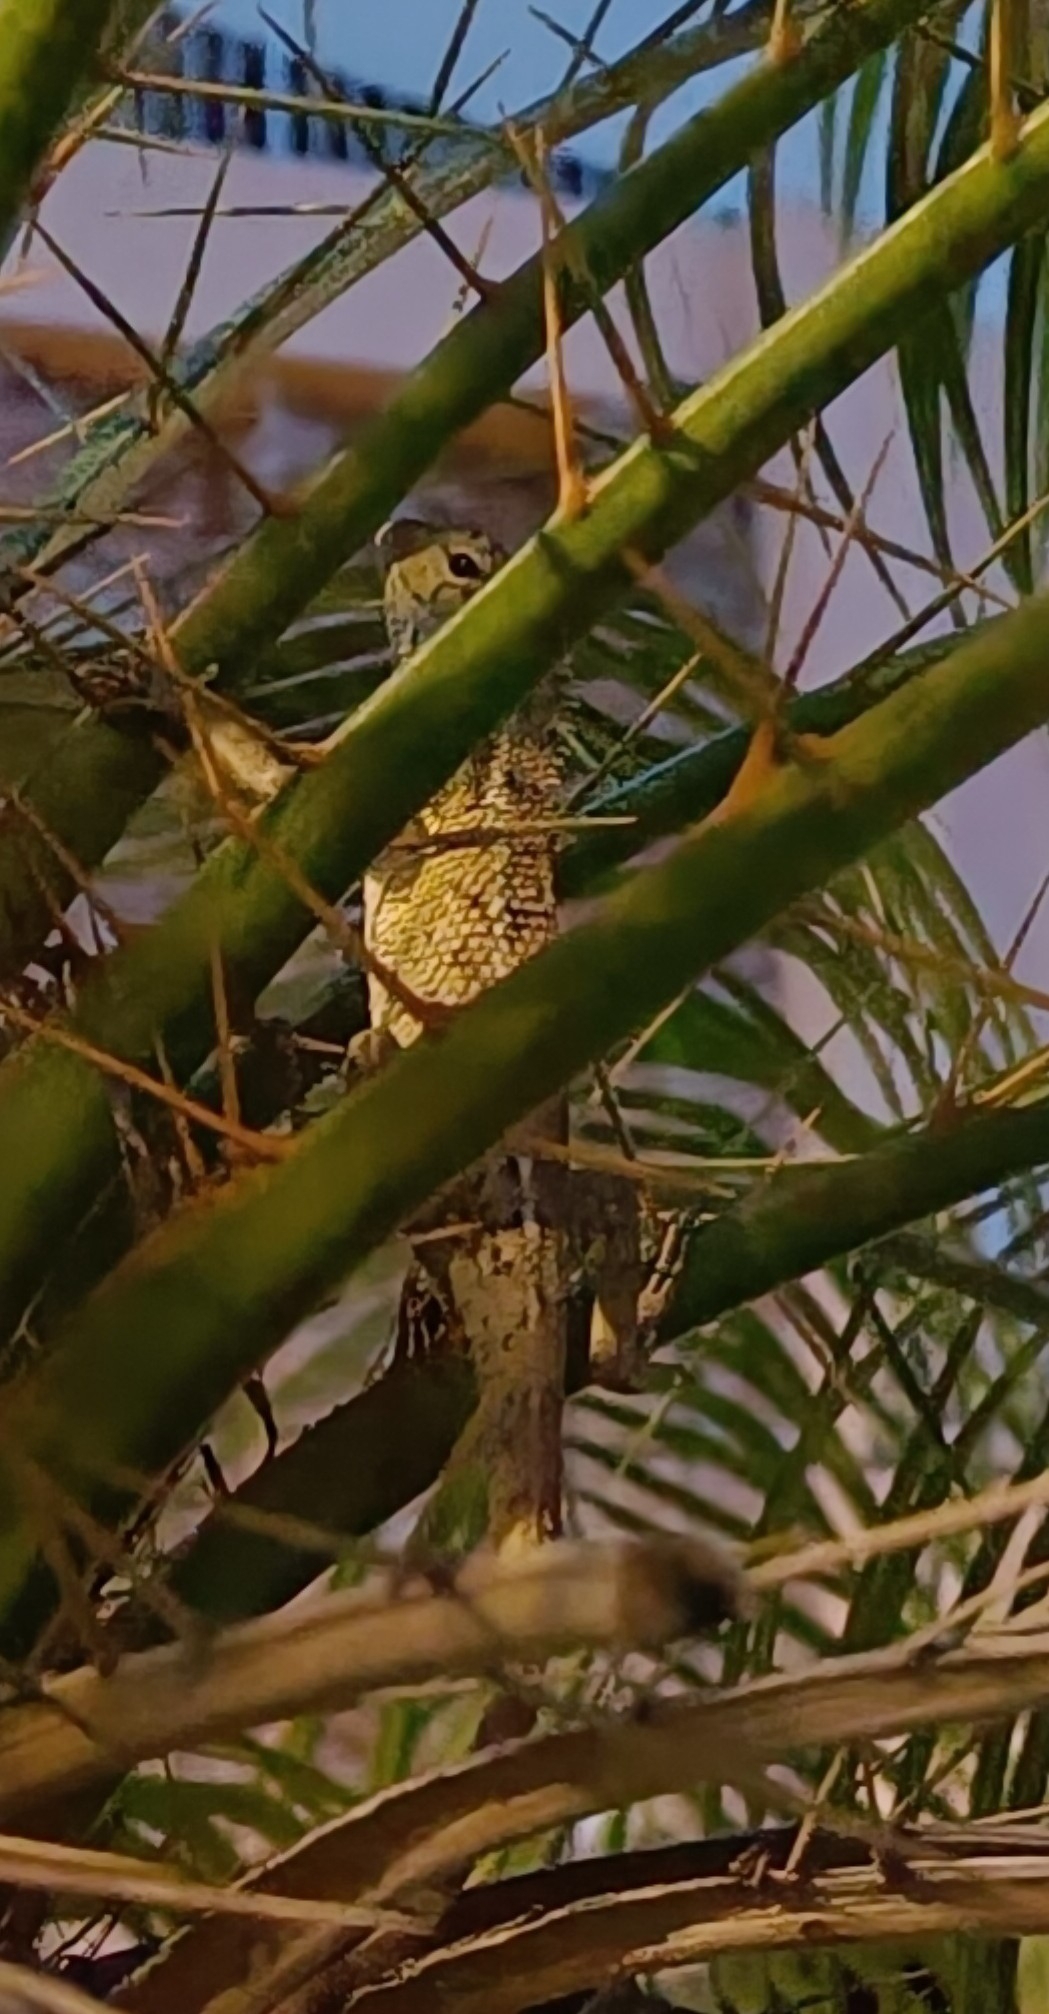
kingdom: Animalia
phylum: Chordata
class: Squamata
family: Agamidae
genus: Calotes
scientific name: Calotes versicolor
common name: Oriental garden lizard
